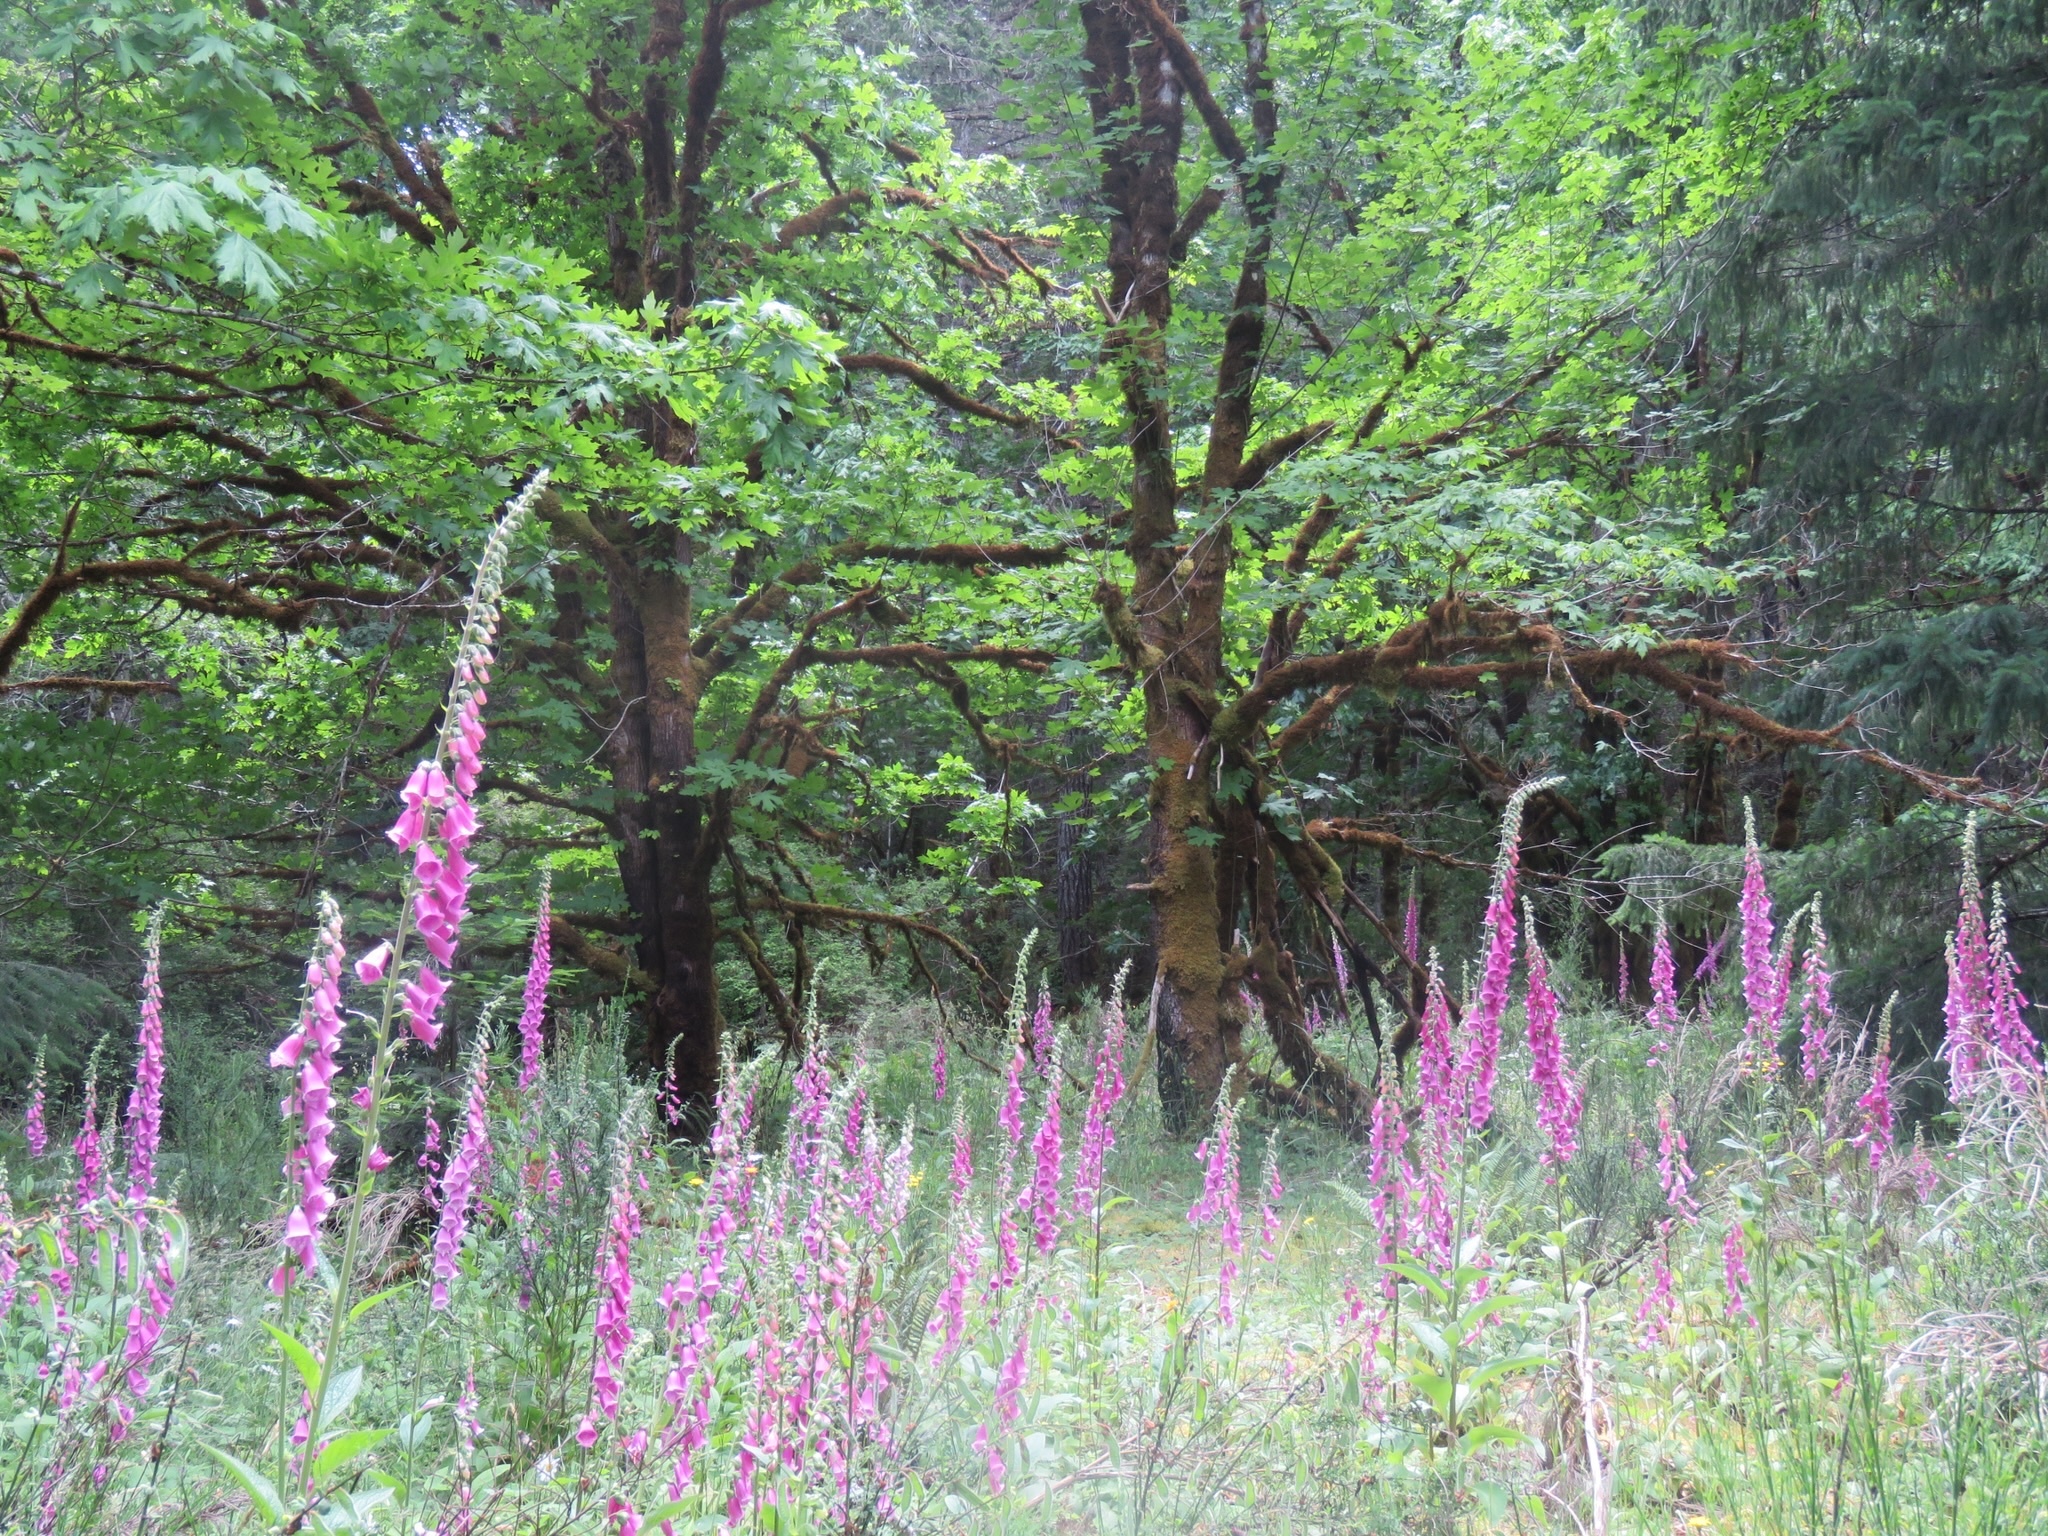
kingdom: Plantae
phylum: Tracheophyta
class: Magnoliopsida
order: Lamiales
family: Plantaginaceae
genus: Digitalis
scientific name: Digitalis purpurea
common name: Foxglove
